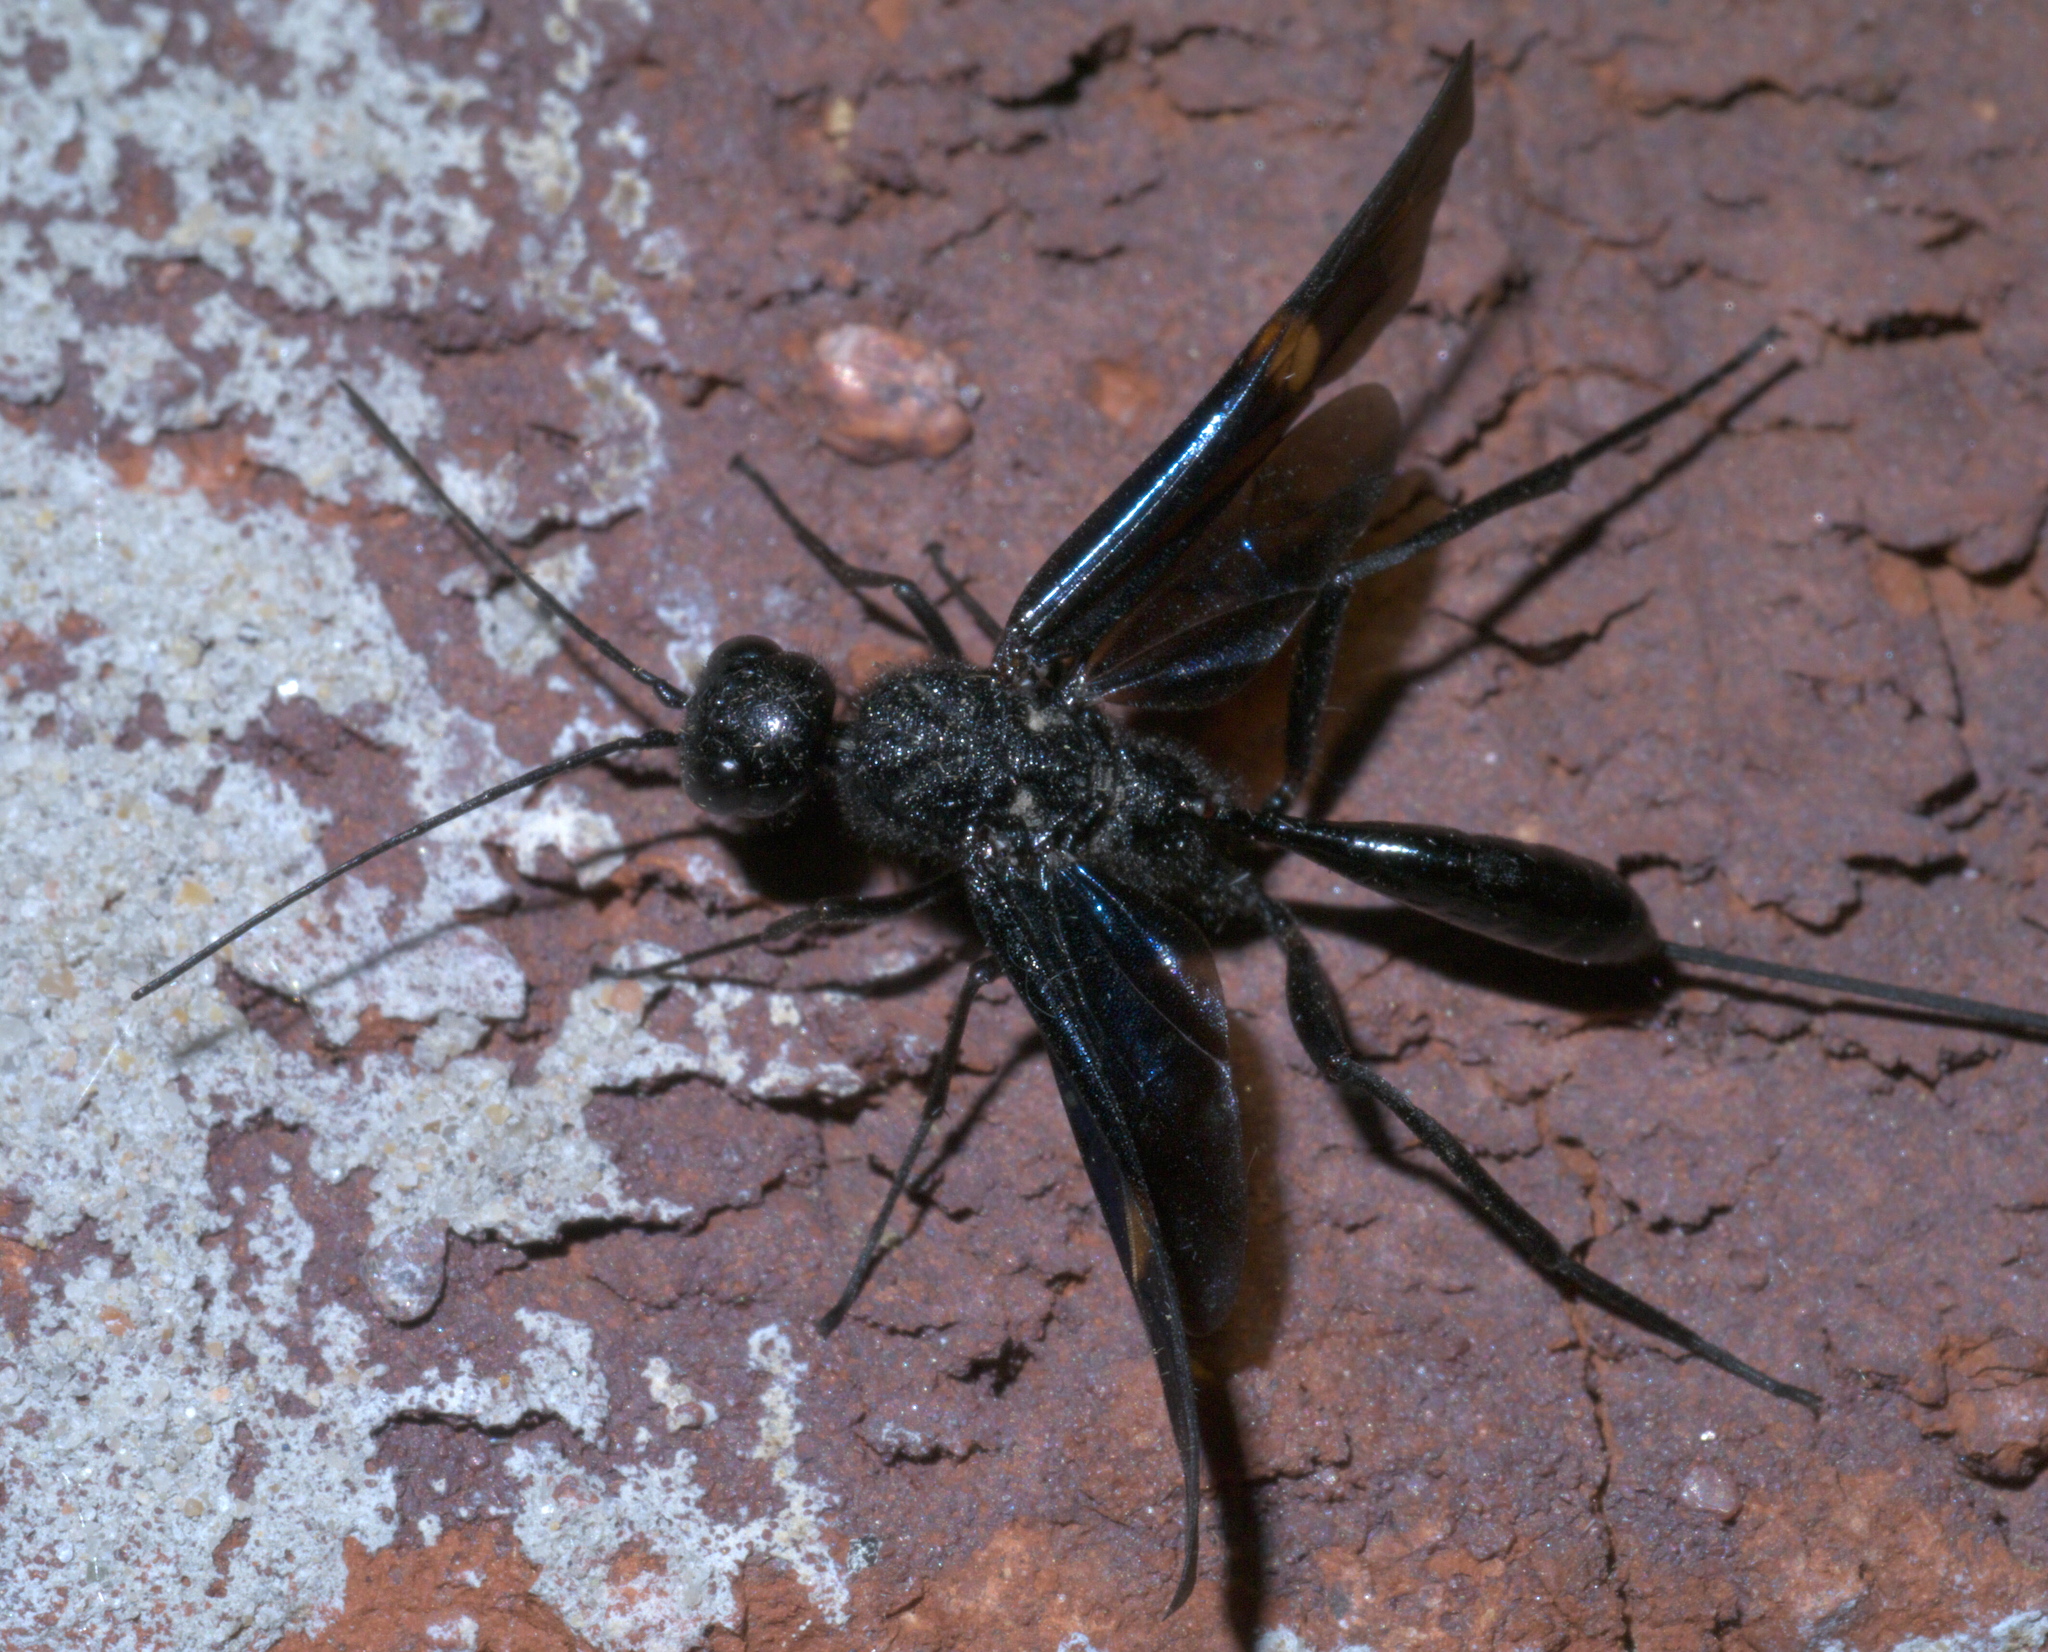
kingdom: Animalia
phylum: Arthropoda
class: Insecta
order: Hymenoptera
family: Aulacidae
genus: Pristaulacus
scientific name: Pristaulacus fasciatus
